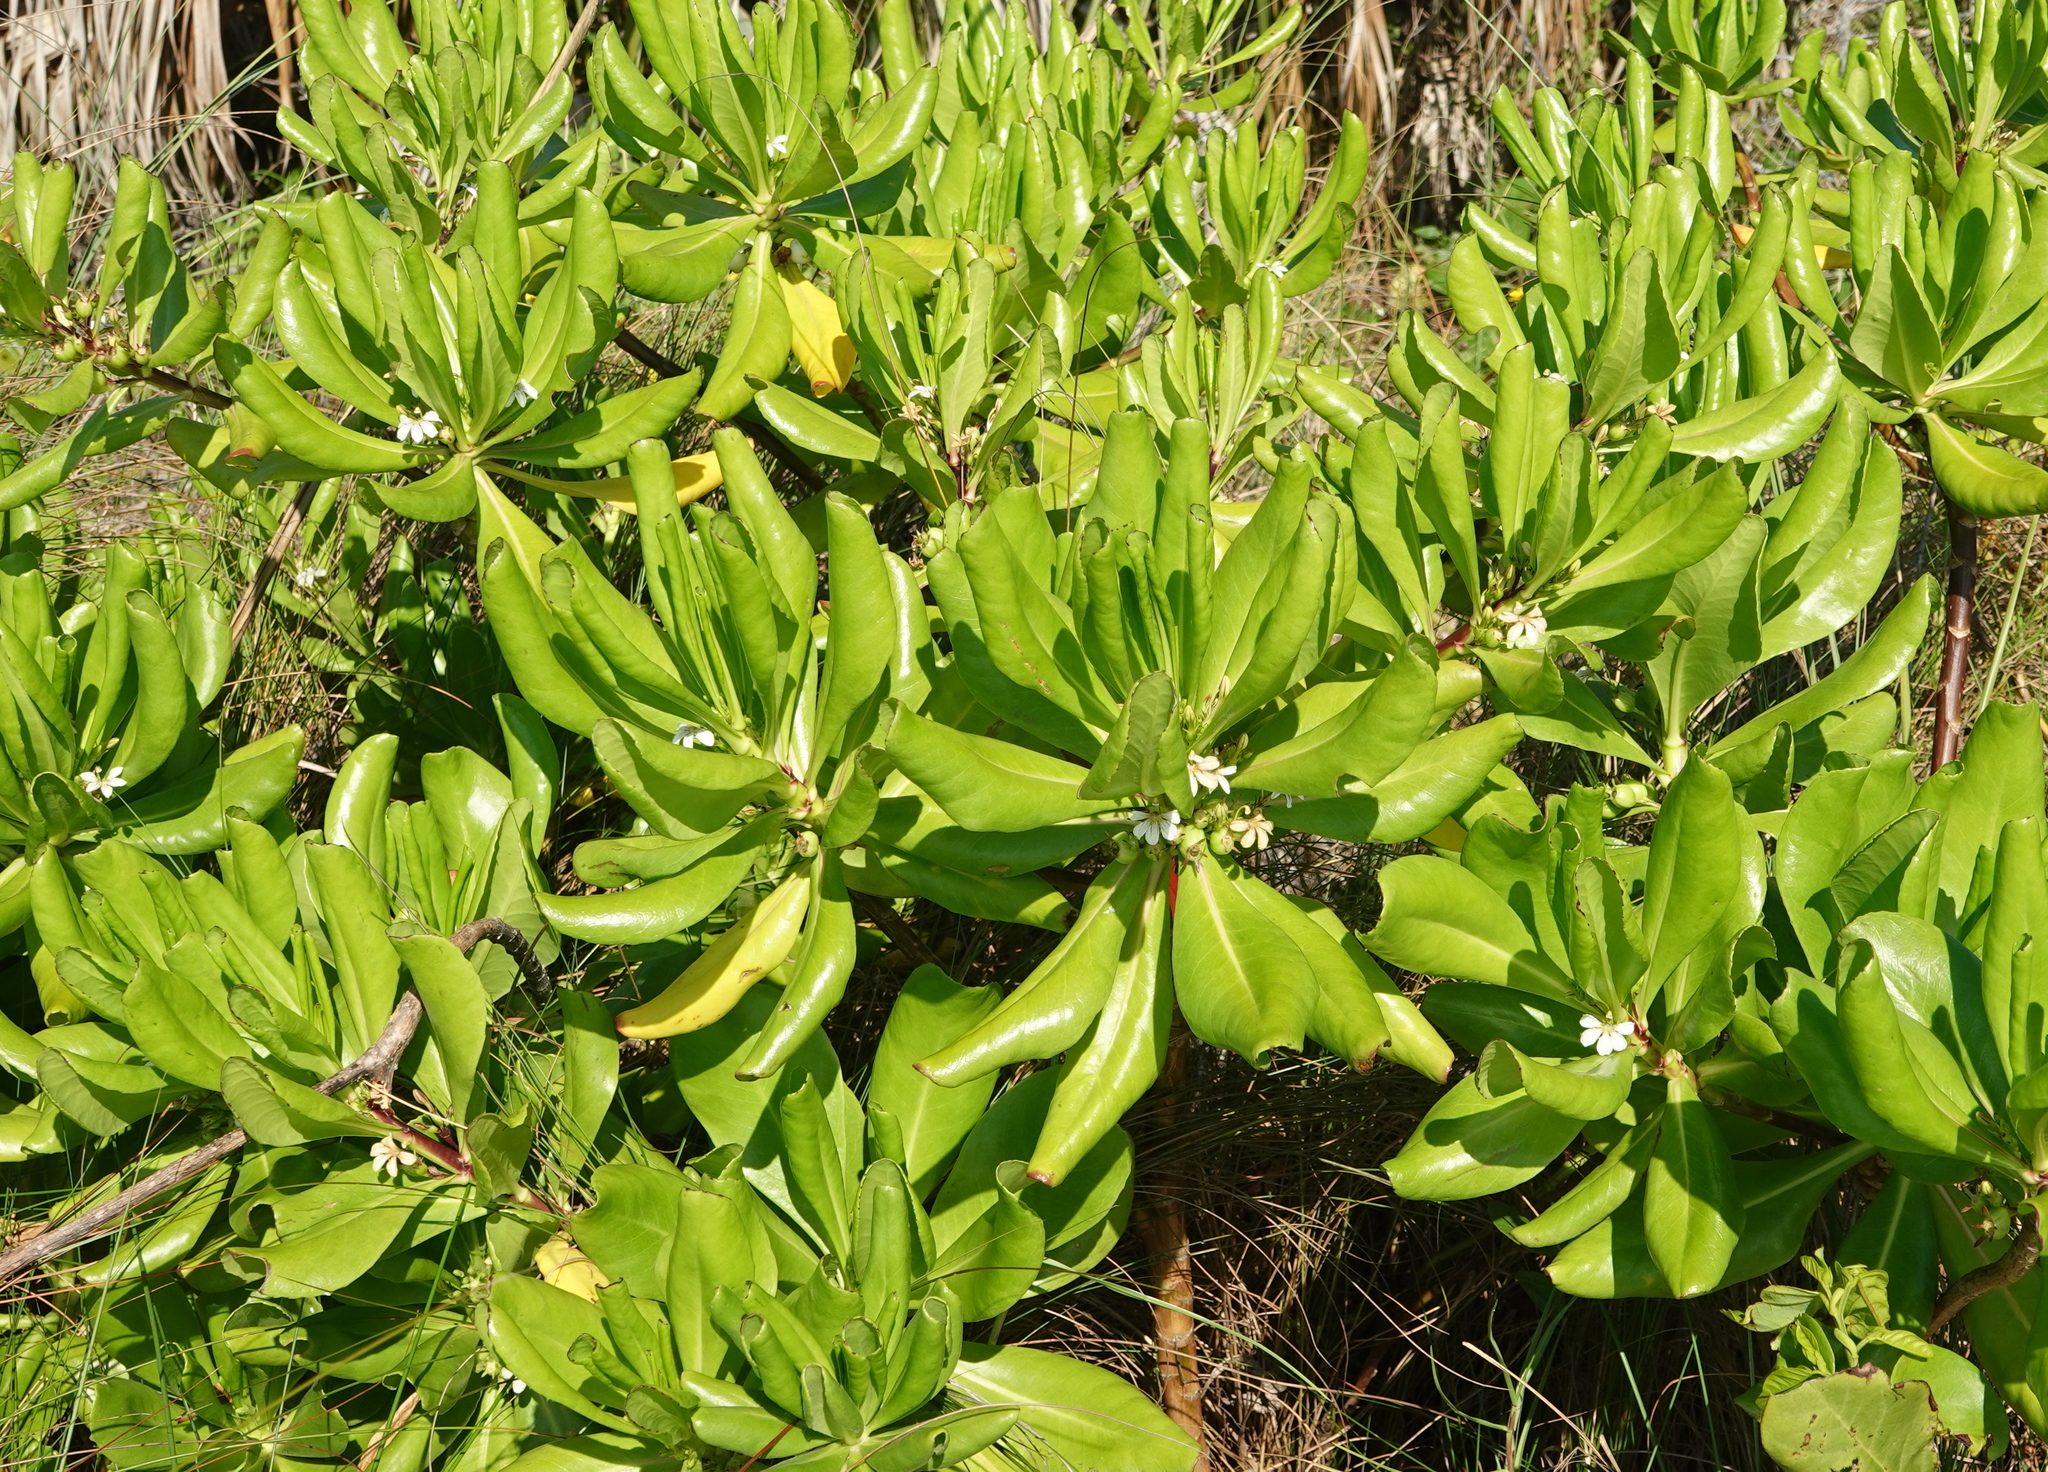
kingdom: Plantae
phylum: Tracheophyta
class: Magnoliopsida
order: Asterales
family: Goodeniaceae
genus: Scaevola
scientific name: Scaevola taccada
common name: Sea lettucetree
